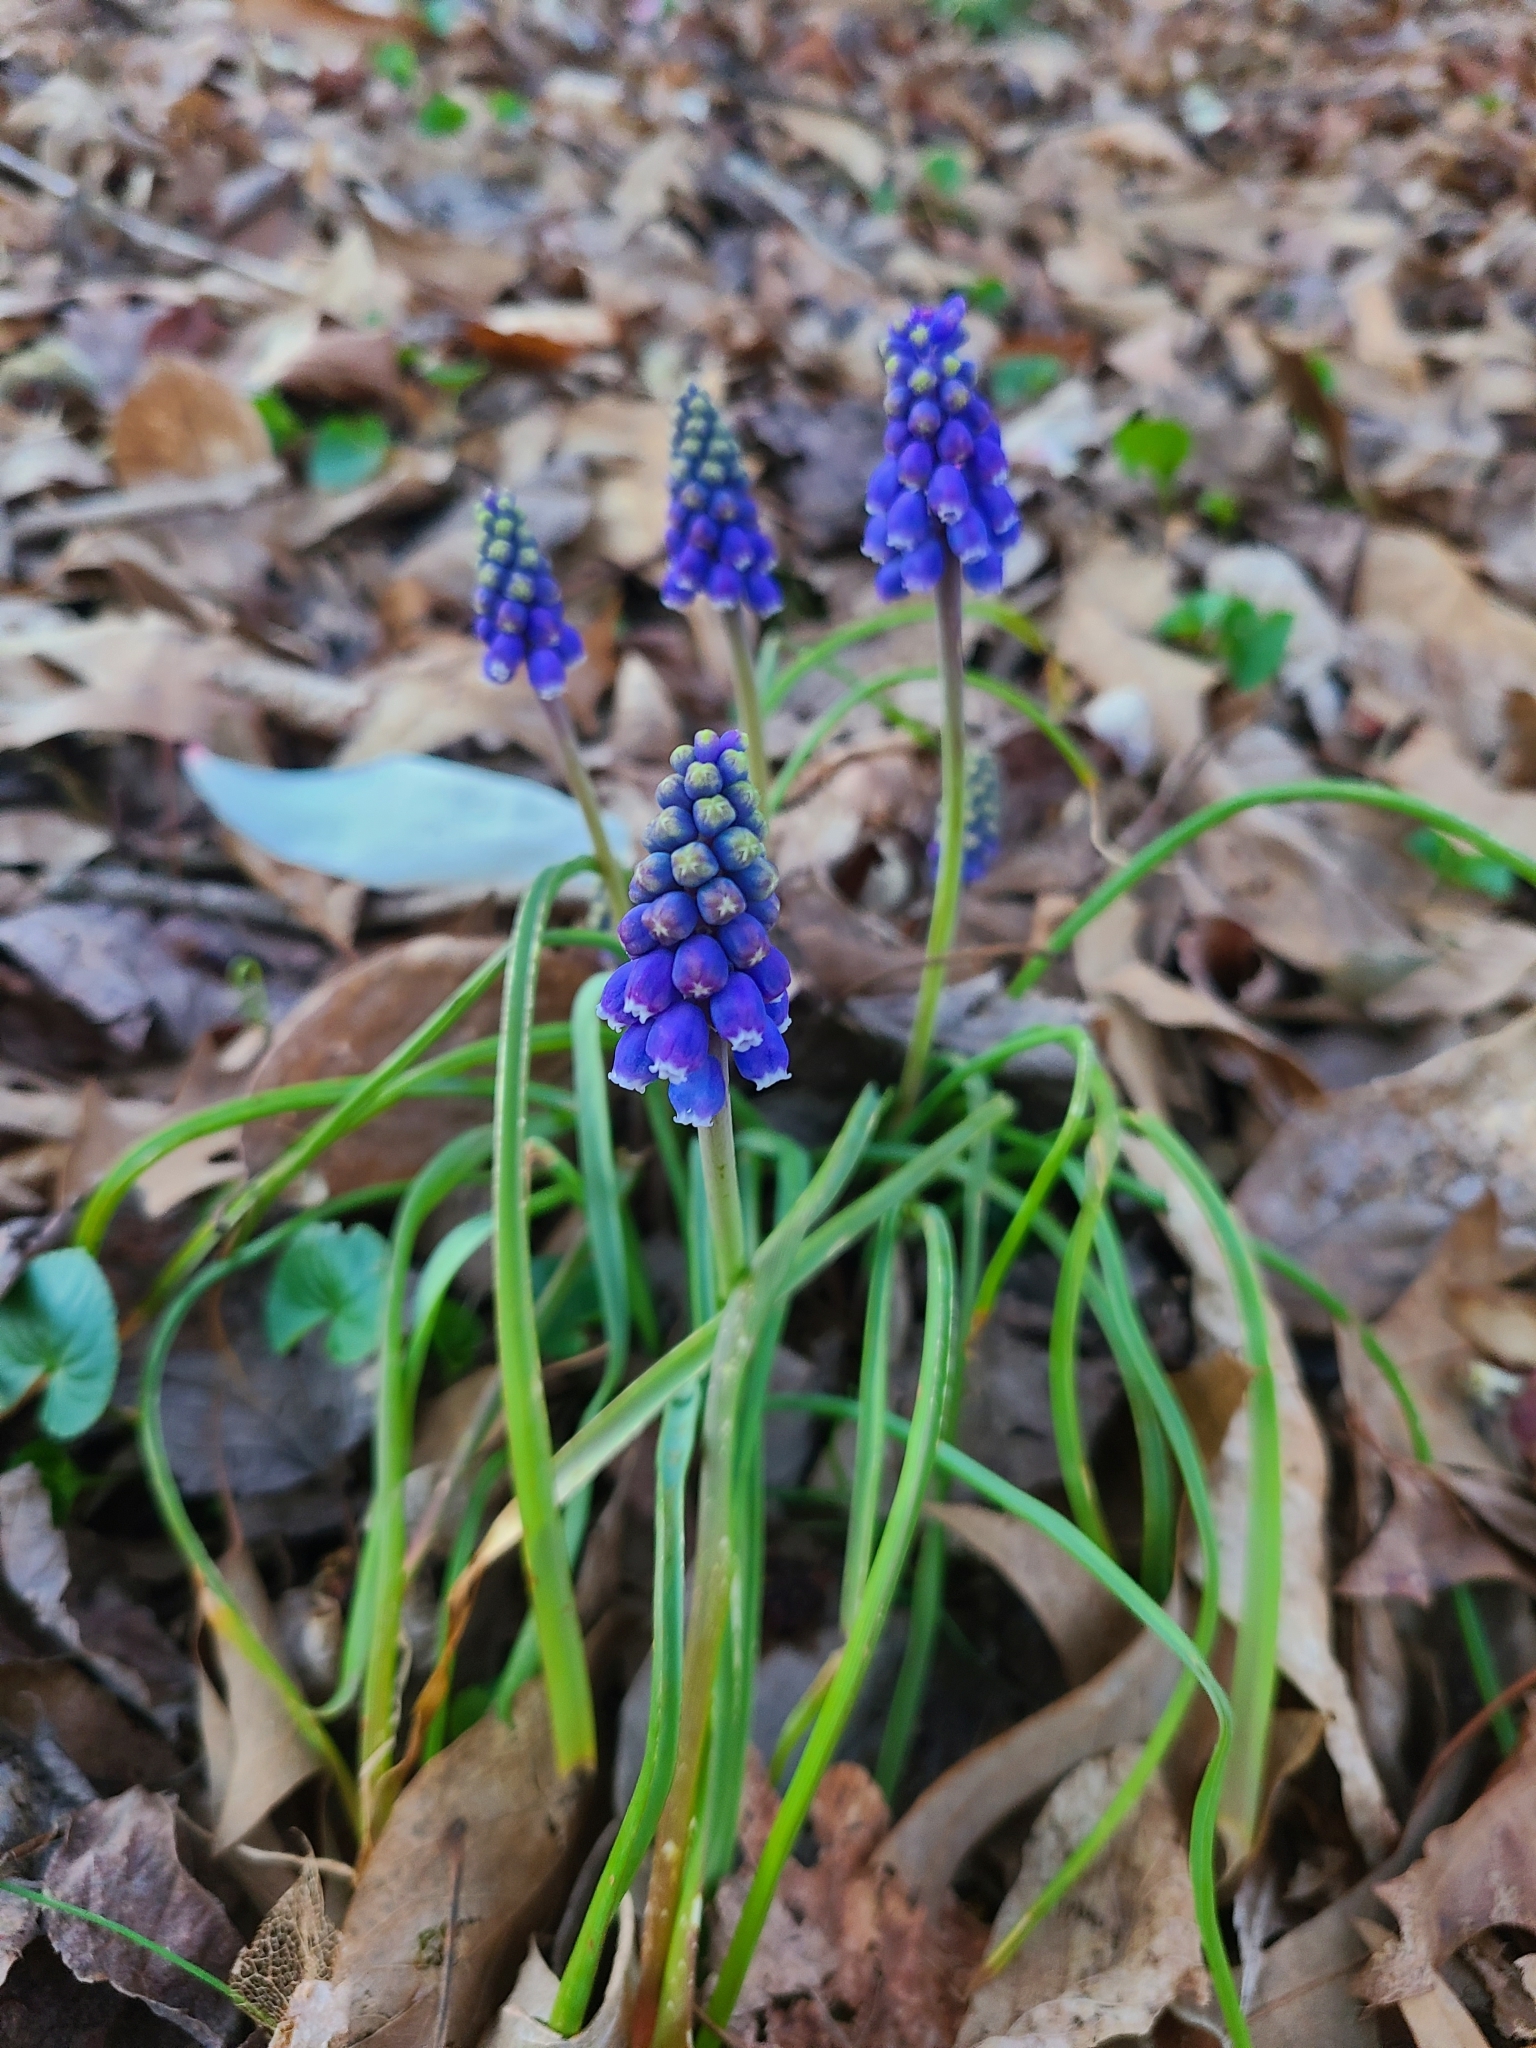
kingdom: Plantae
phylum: Tracheophyta
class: Liliopsida
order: Asparagales
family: Asparagaceae
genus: Muscari
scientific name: Muscari botryoides
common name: Compact grape-hyacinth
